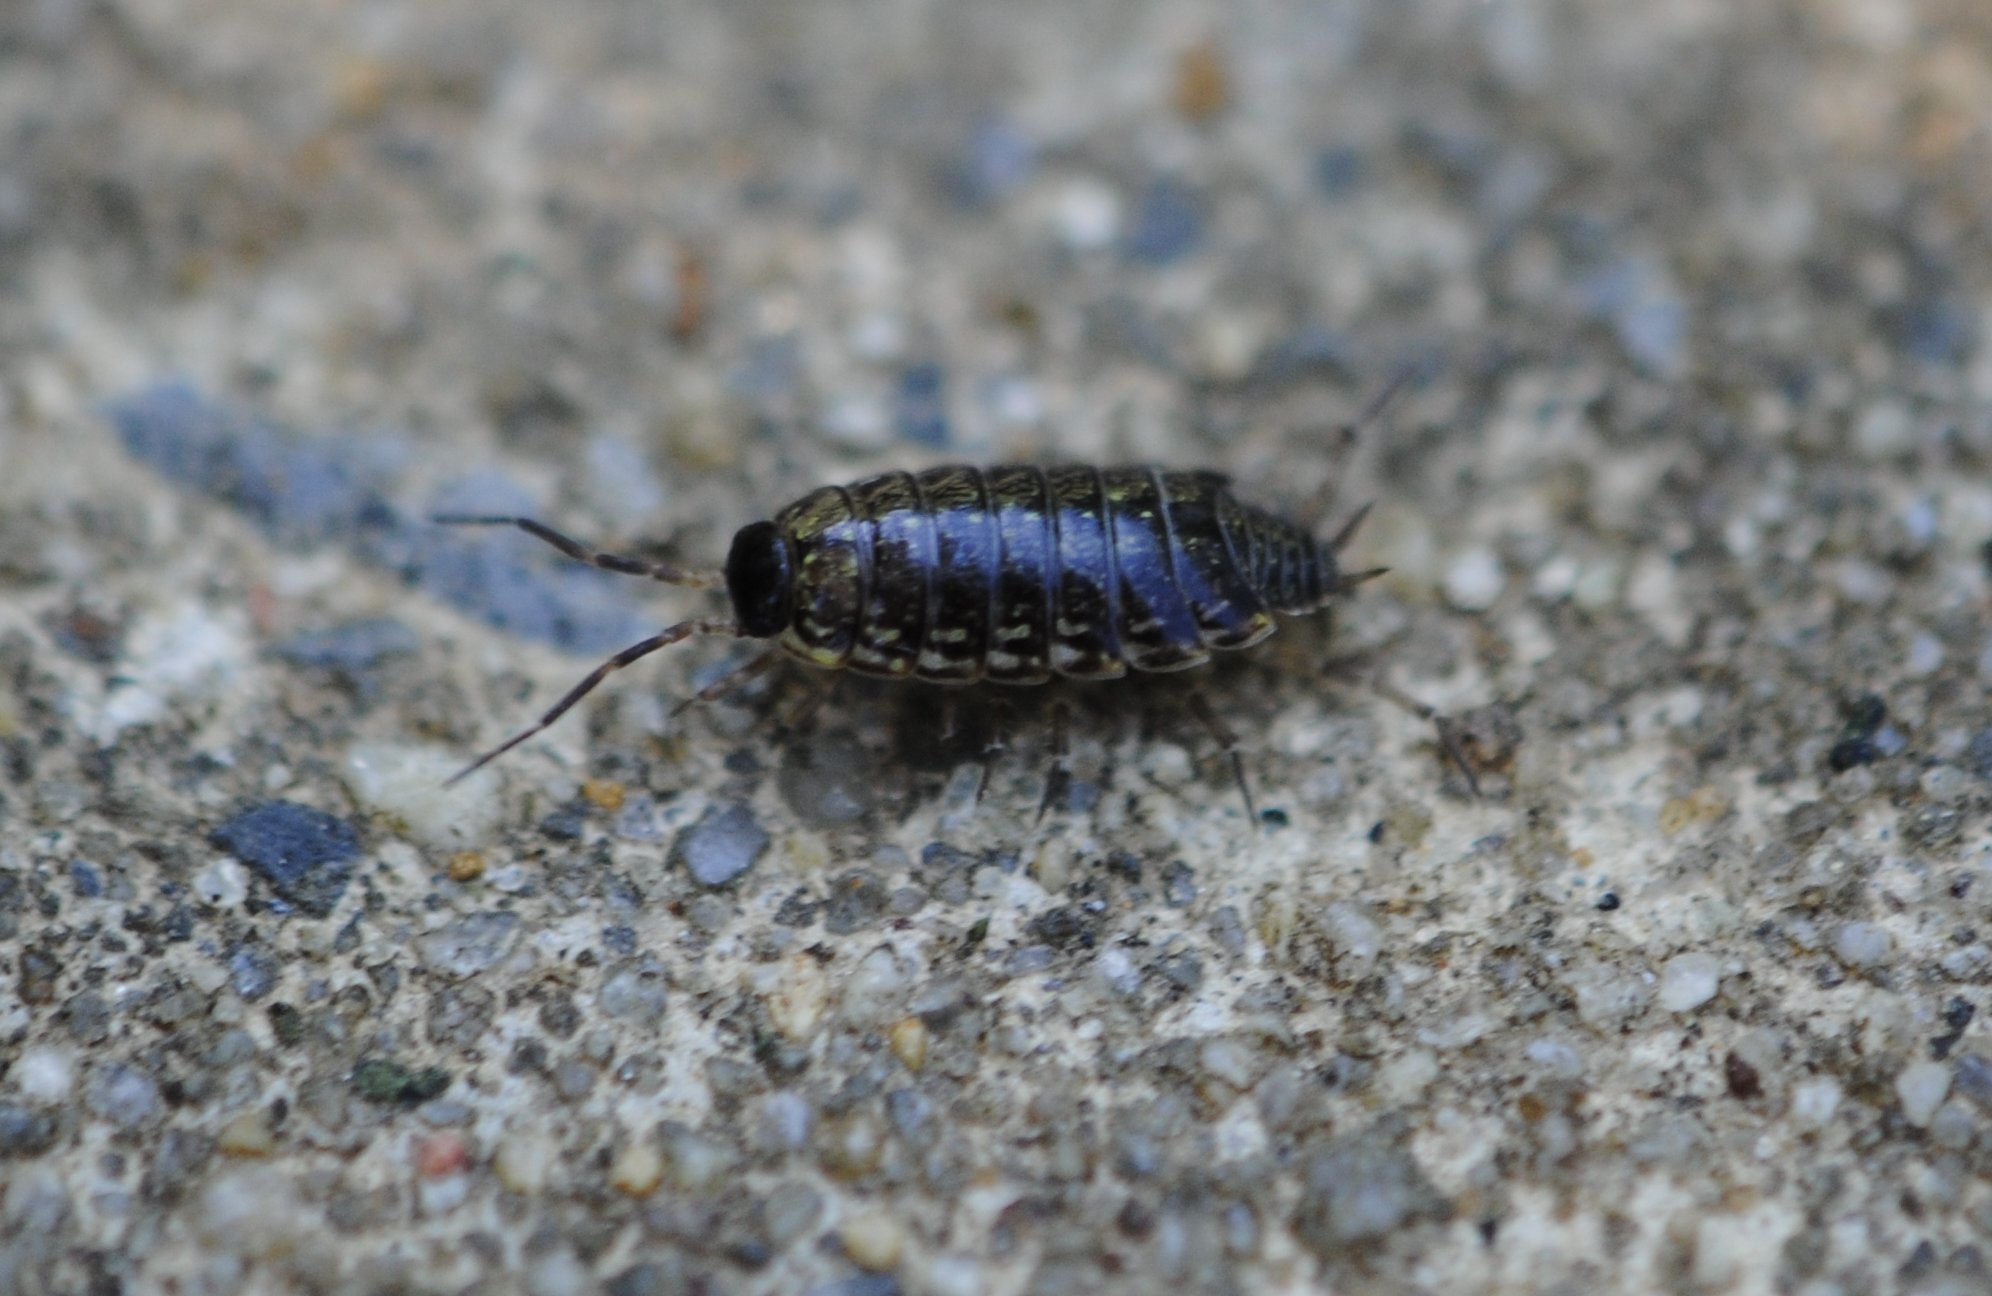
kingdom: Animalia
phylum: Arthropoda
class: Malacostraca
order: Isopoda
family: Philosciidae
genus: Philoscia
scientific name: Philoscia muscorum
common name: Common striped woodlouse
